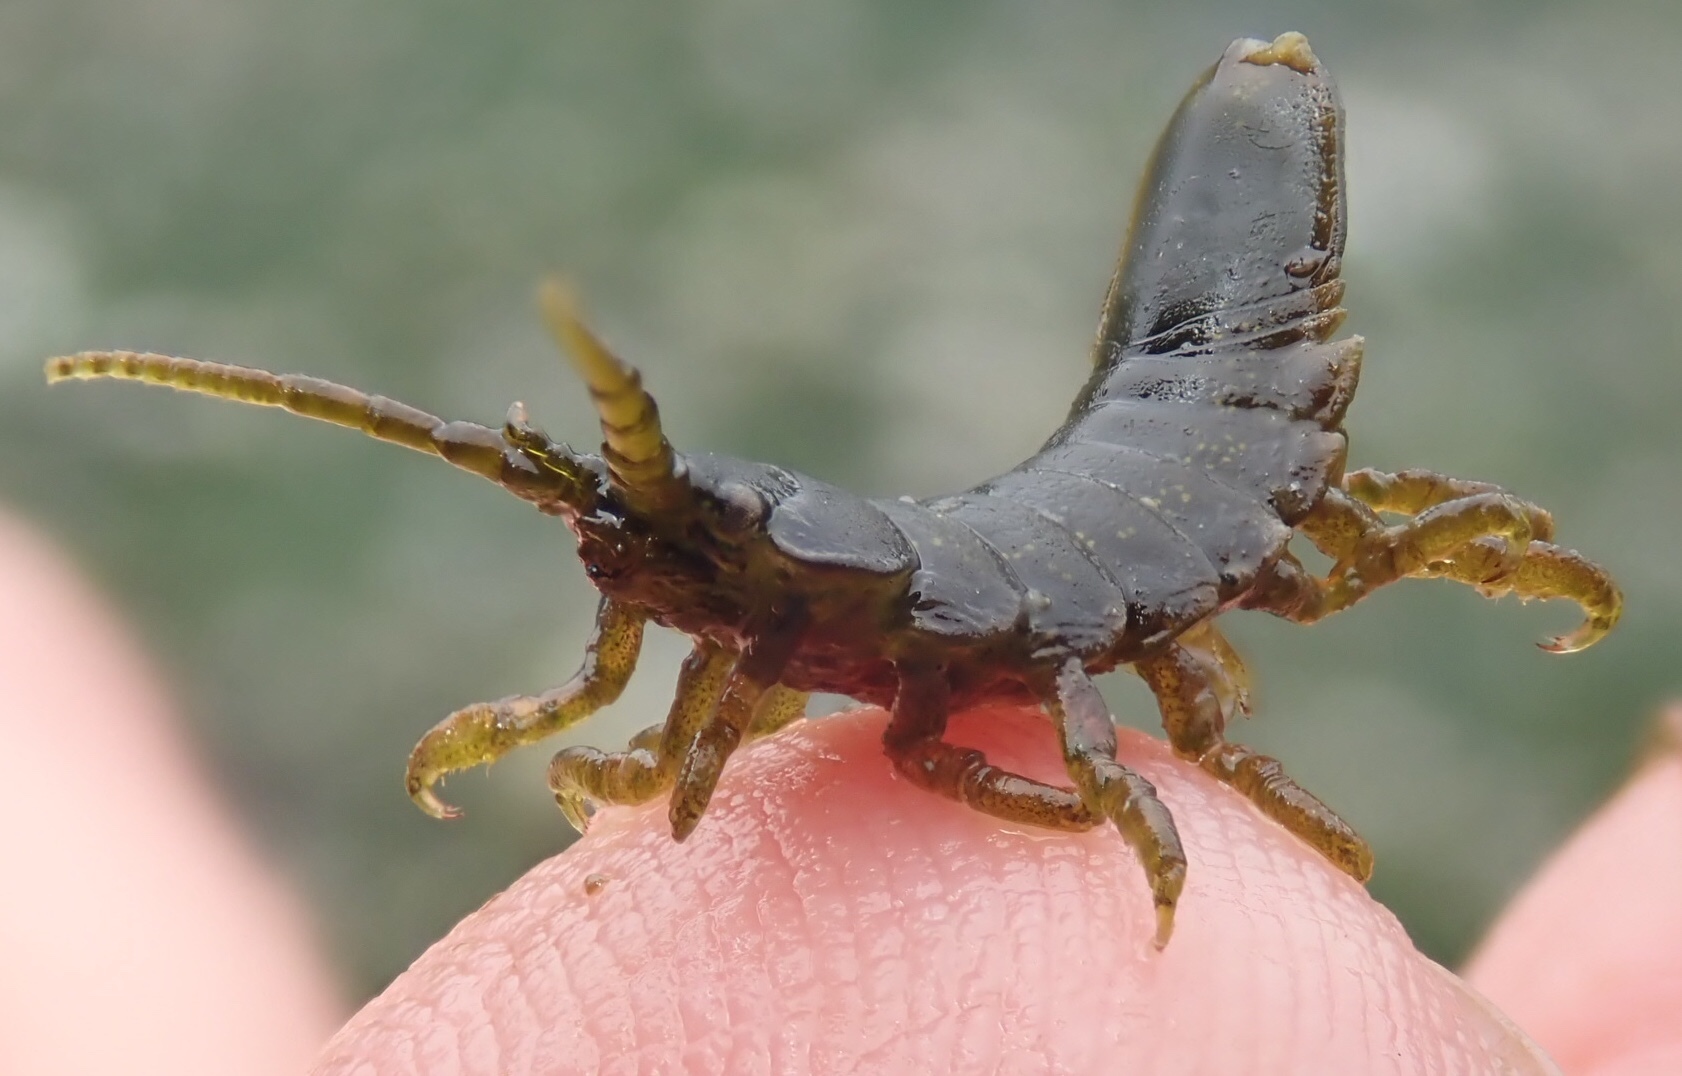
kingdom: Animalia
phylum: Arthropoda
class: Malacostraca
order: Isopoda
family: Idoteidae
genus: Pentidotea
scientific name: Pentidotea wosnesenskii
